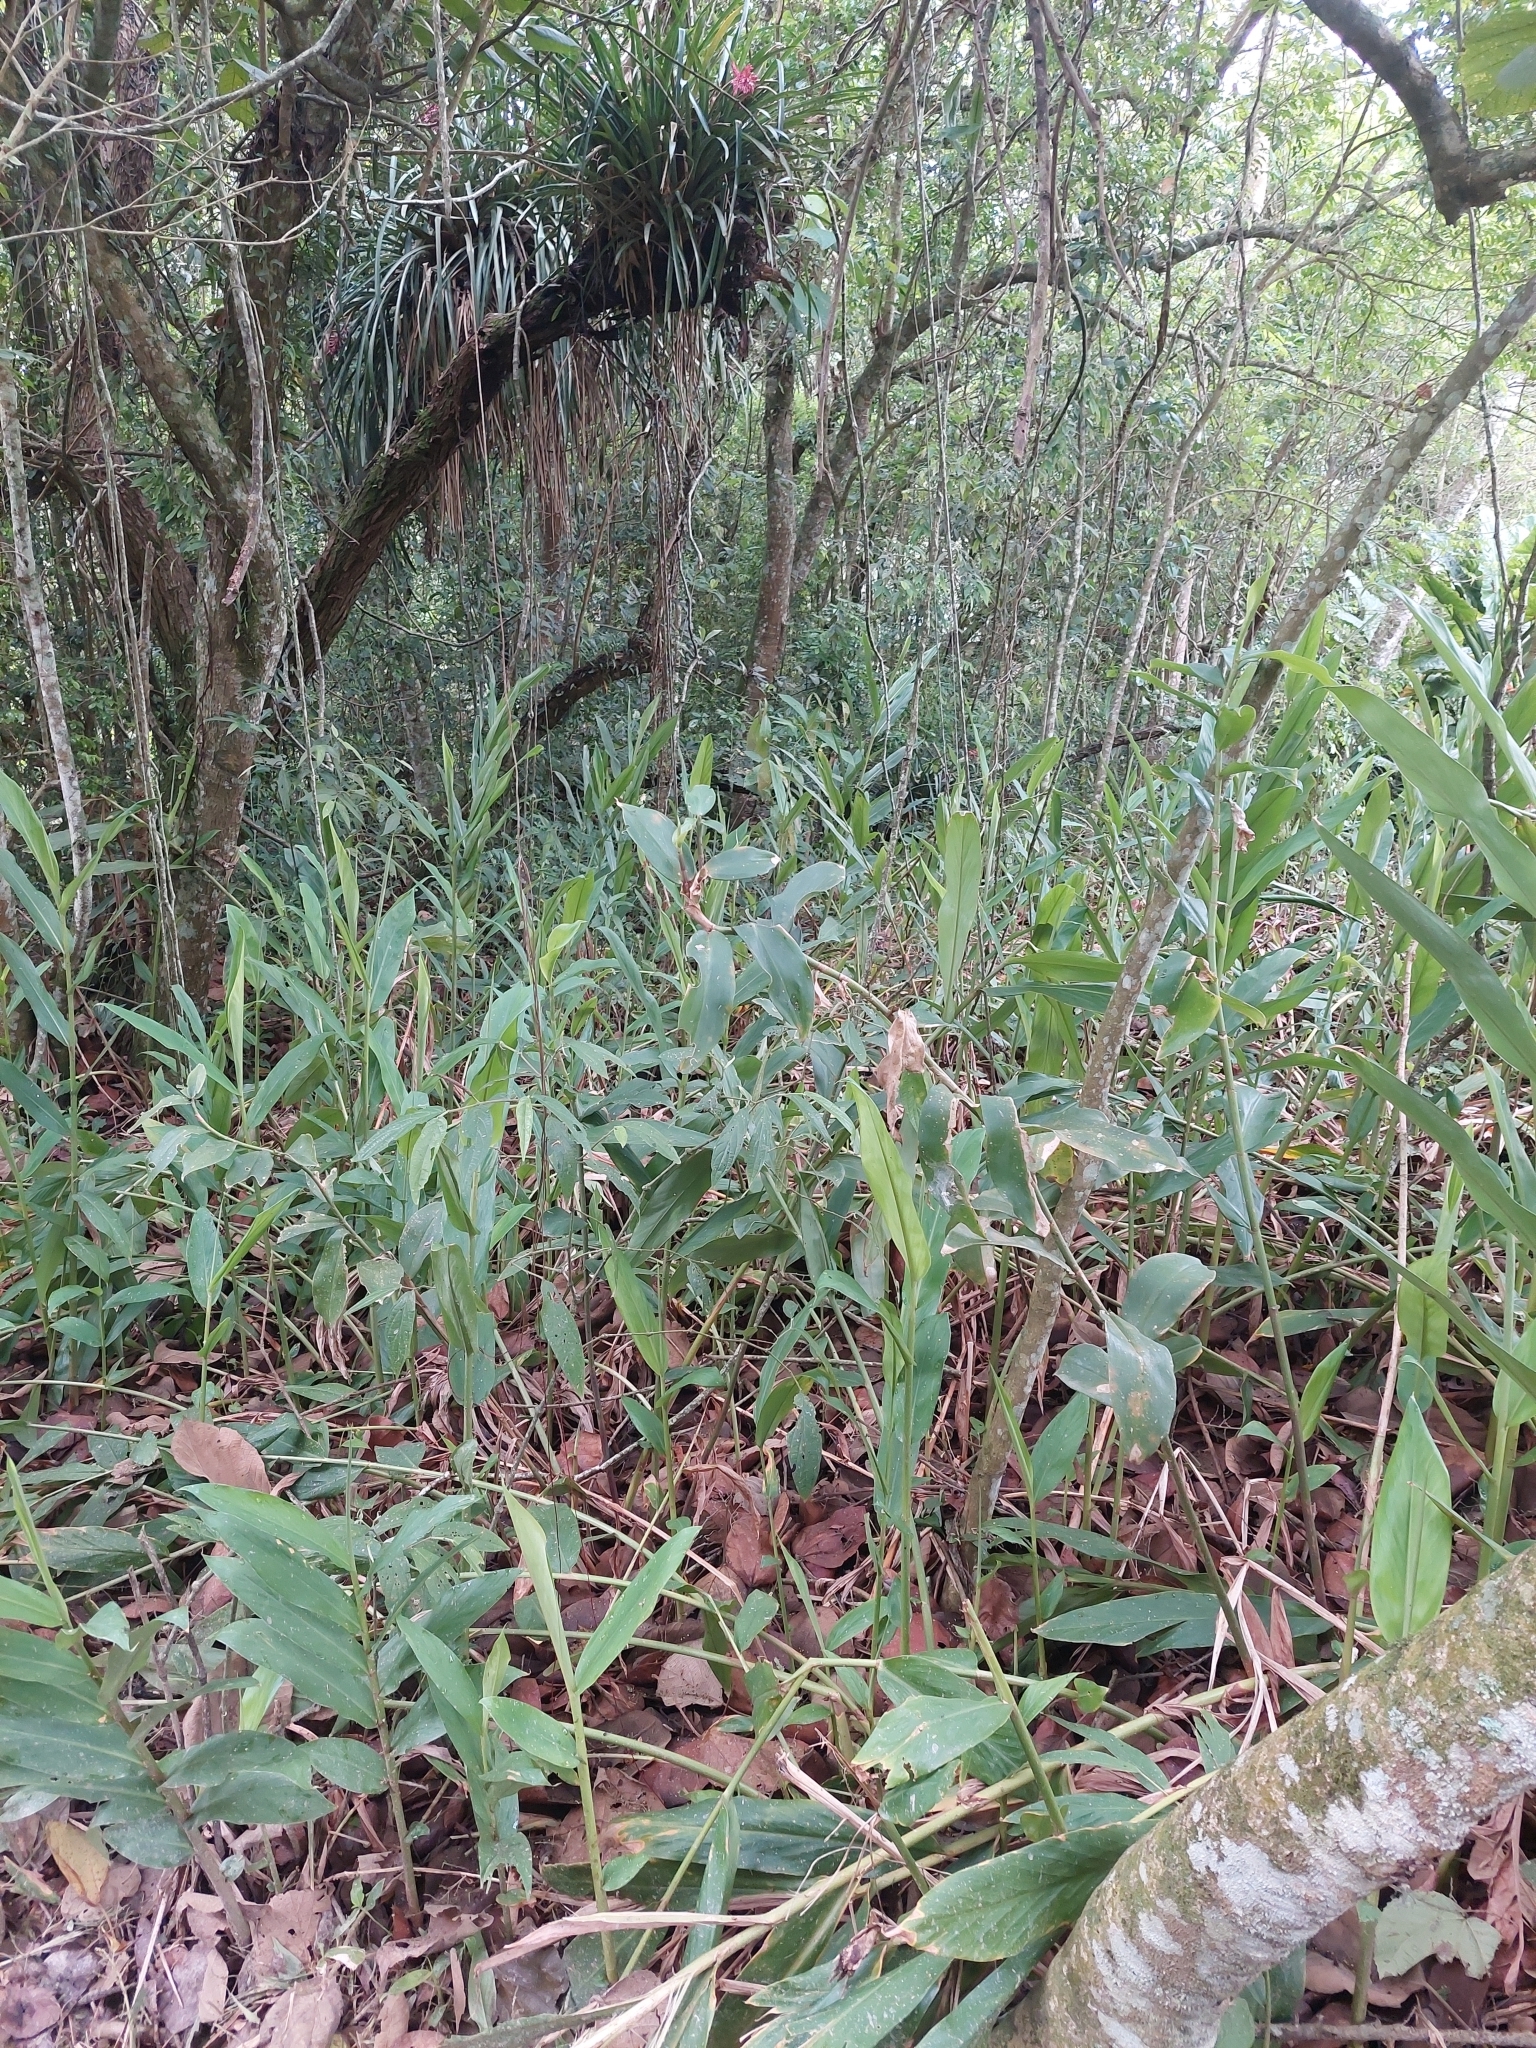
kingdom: Plantae
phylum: Tracheophyta
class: Liliopsida
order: Zingiberales
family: Zingiberaceae
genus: Hedychium
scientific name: Hedychium coronarium
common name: White garland-lily
